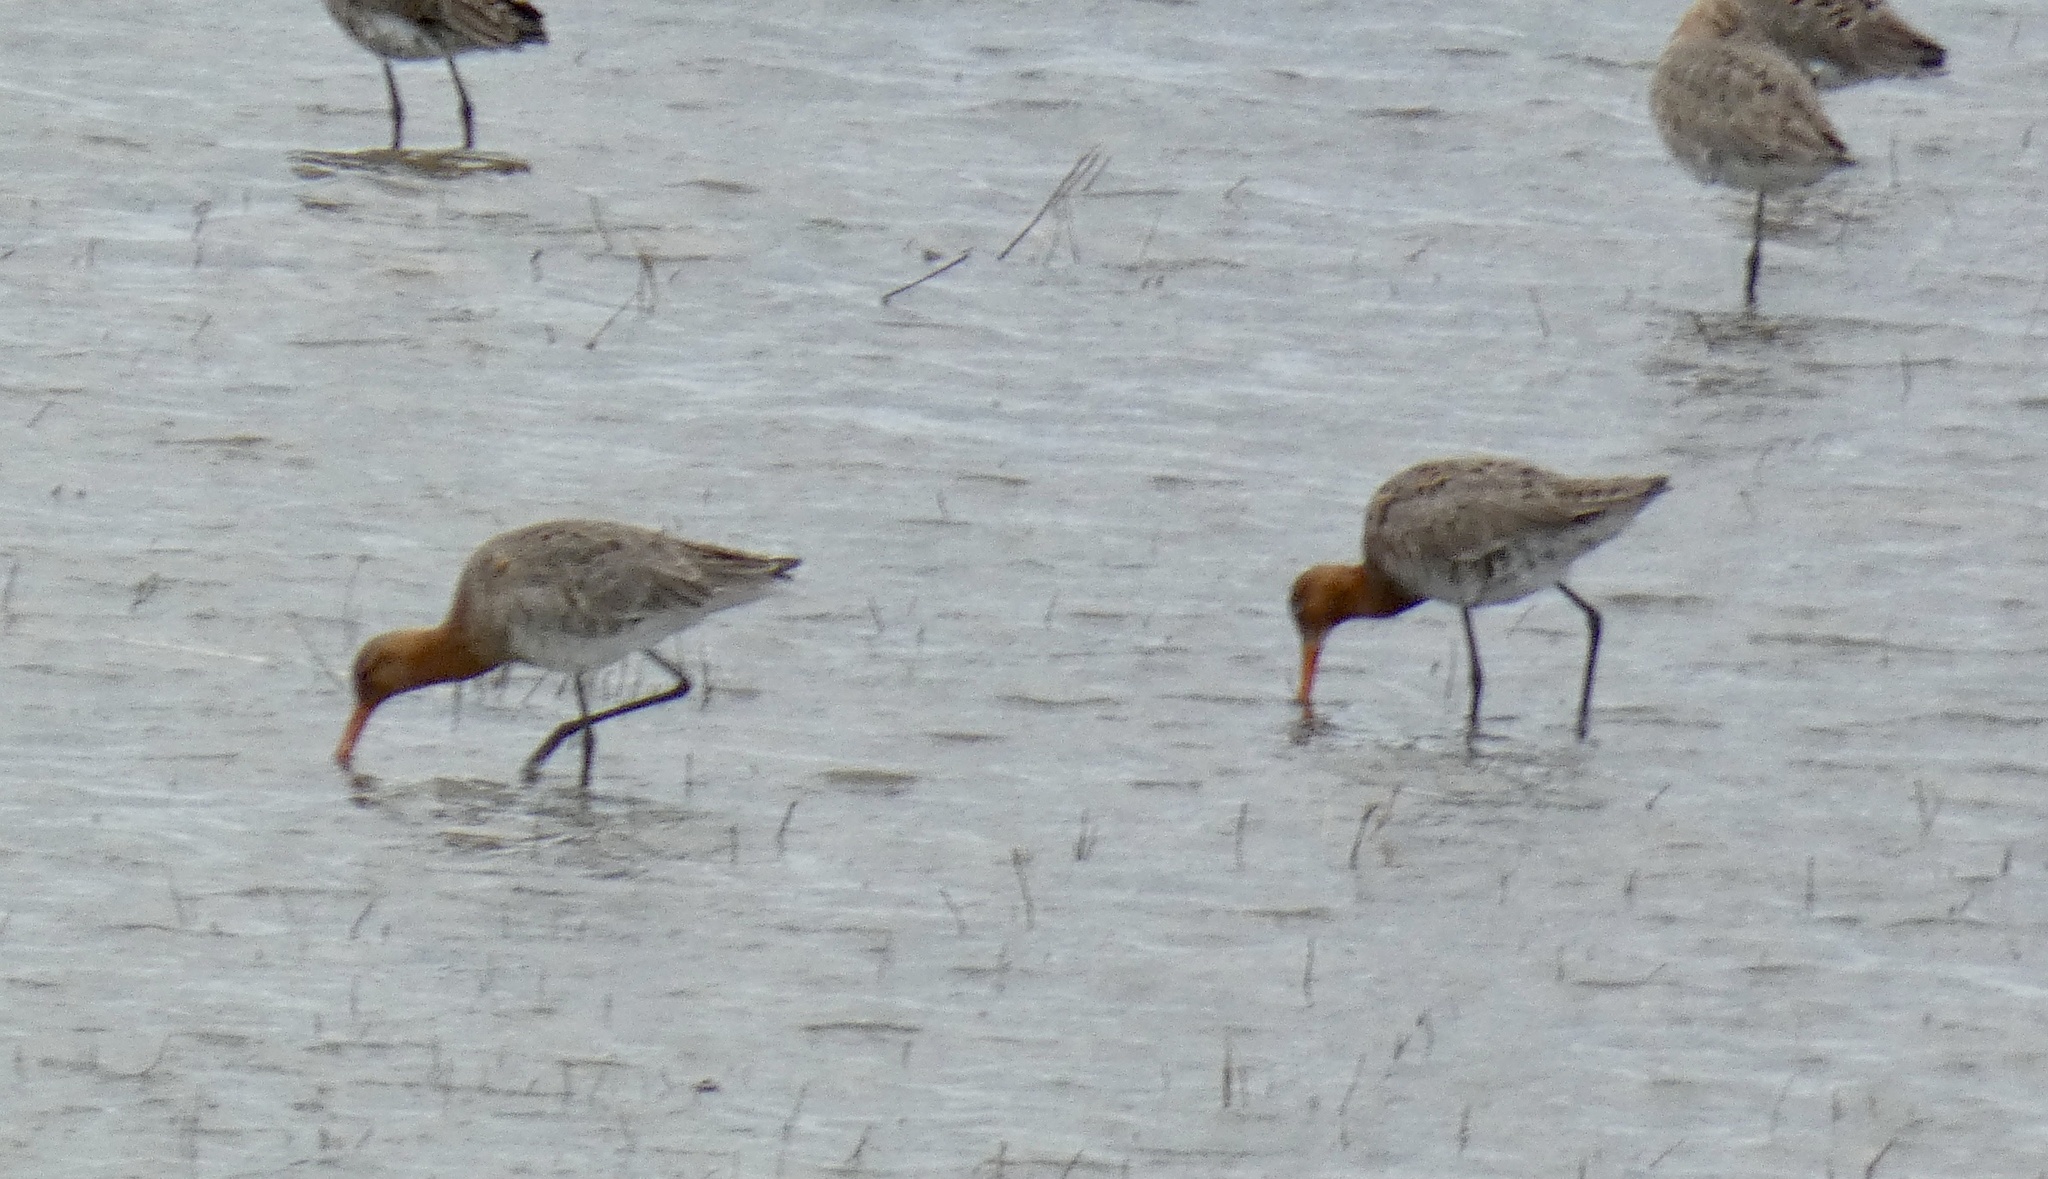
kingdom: Animalia
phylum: Chordata
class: Aves
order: Charadriiformes
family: Scolopacidae
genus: Limosa
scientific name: Limosa limosa
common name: Black-tailed godwit
